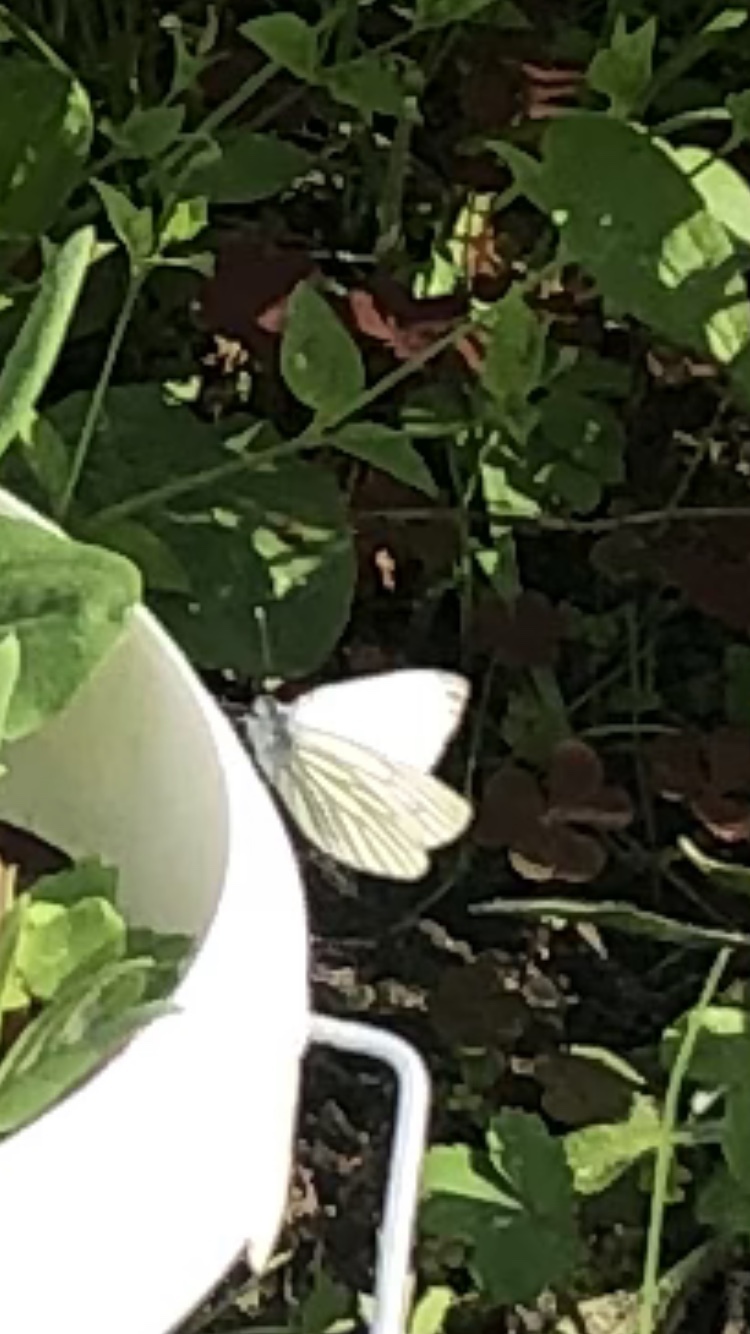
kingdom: Animalia
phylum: Arthropoda
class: Insecta
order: Lepidoptera
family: Pieridae
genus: Pieris
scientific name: Pieris napi
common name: Green-veined white
